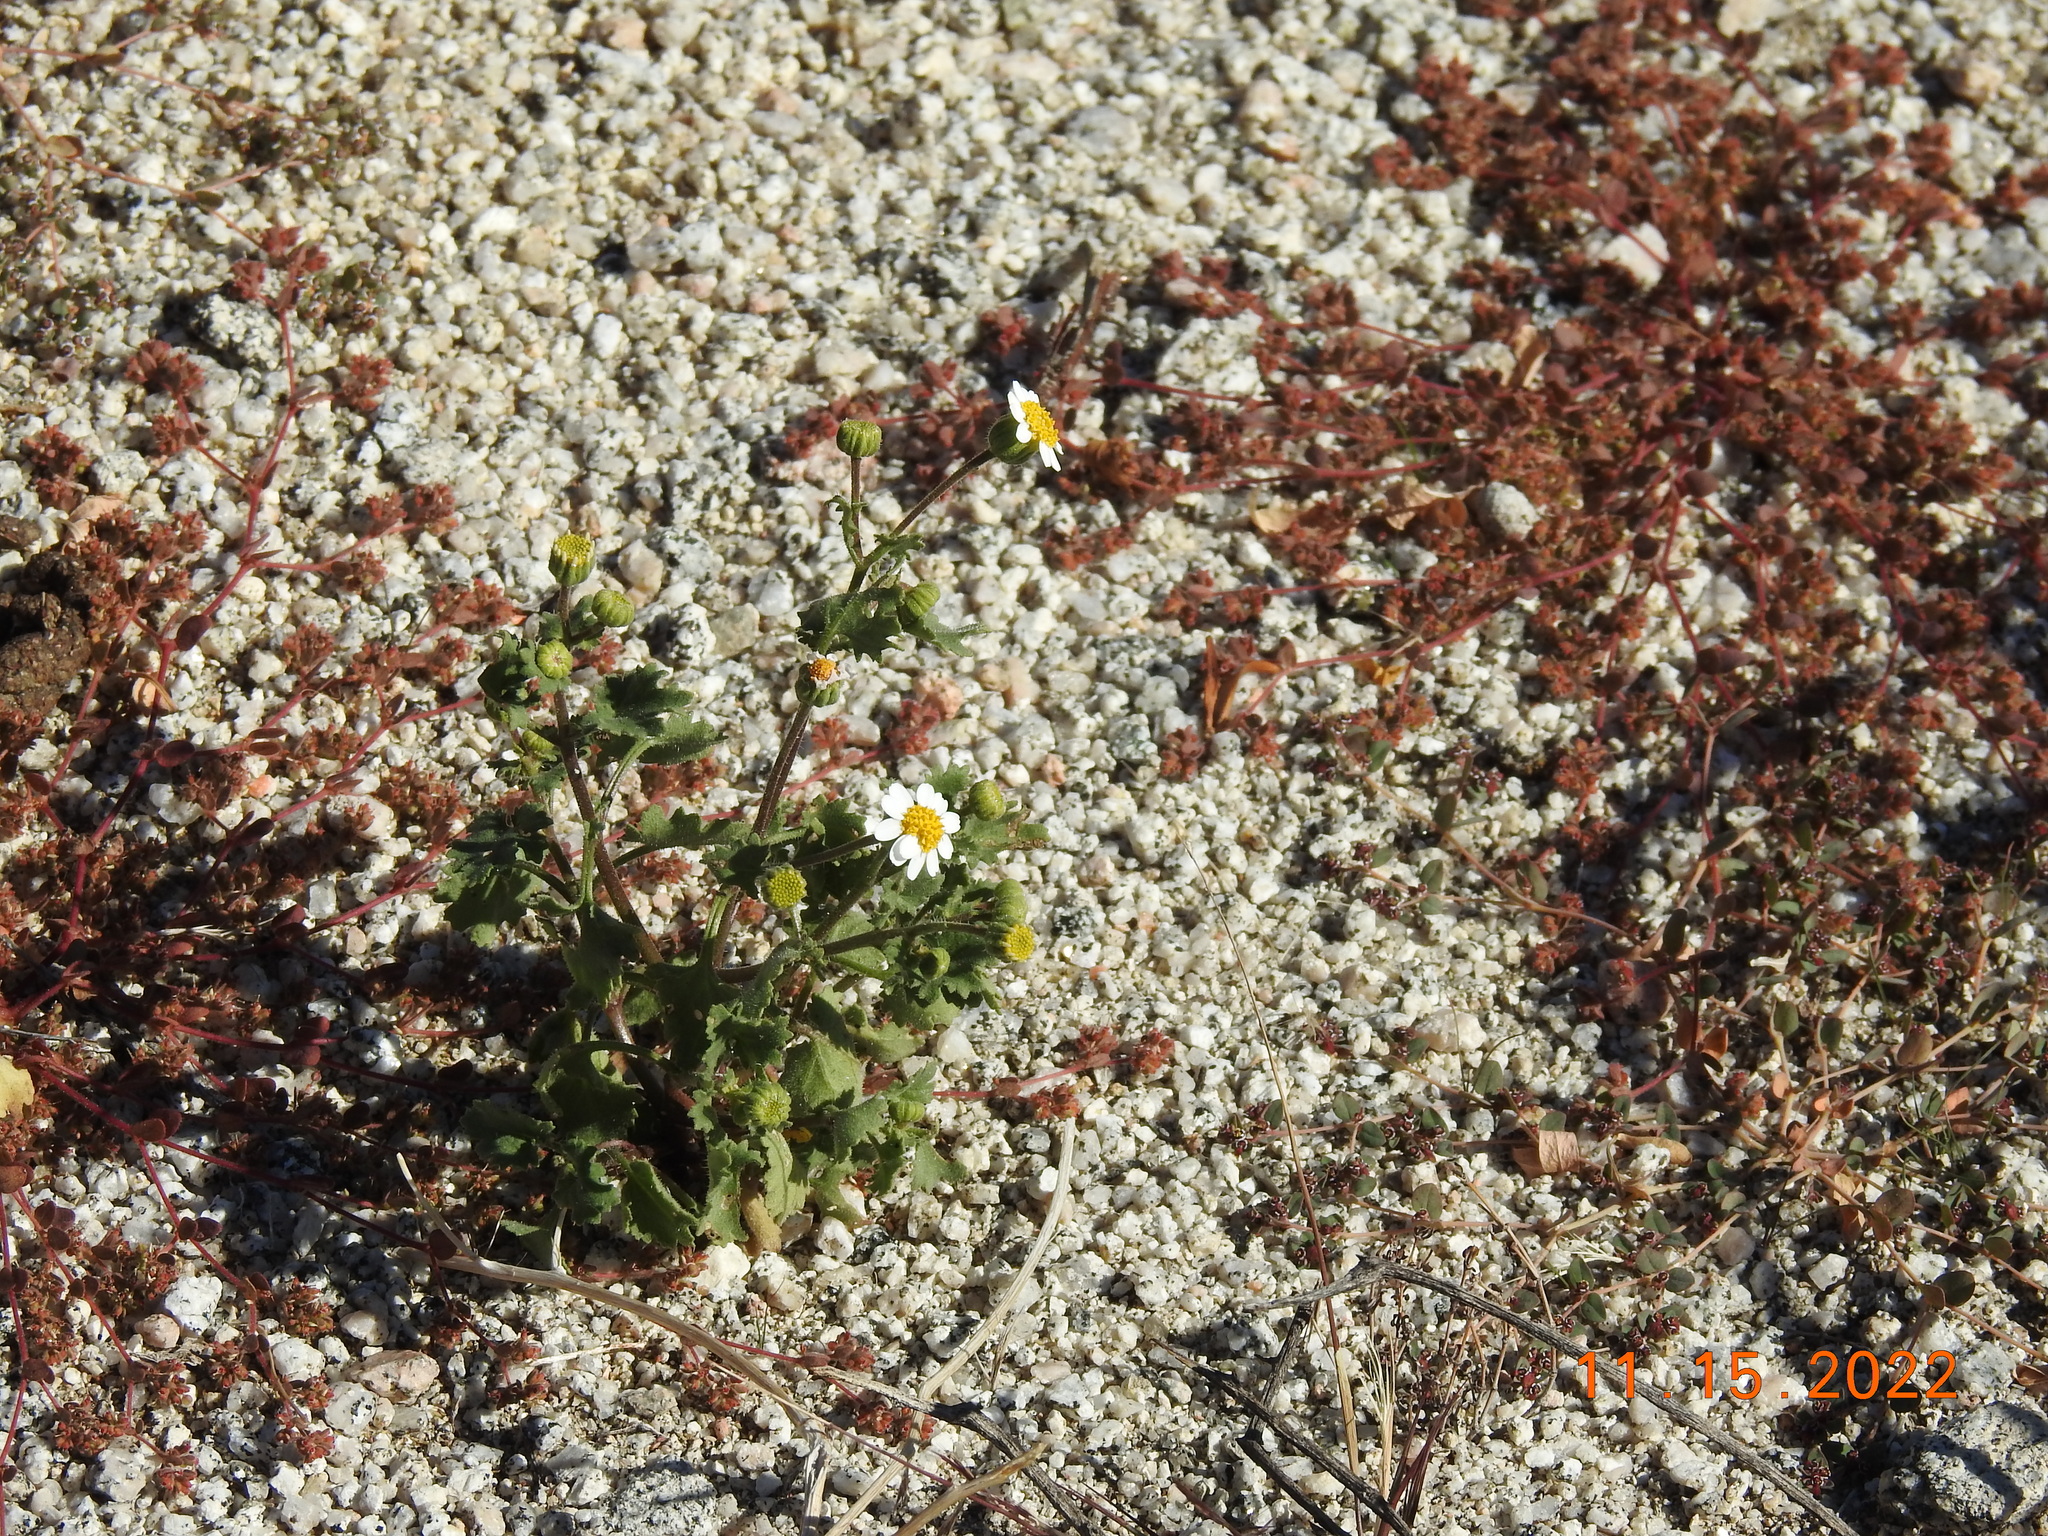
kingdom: Plantae
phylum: Tracheophyta
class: Magnoliopsida
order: Asterales
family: Asteraceae
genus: Laphamia
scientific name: Laphamia emoryi
